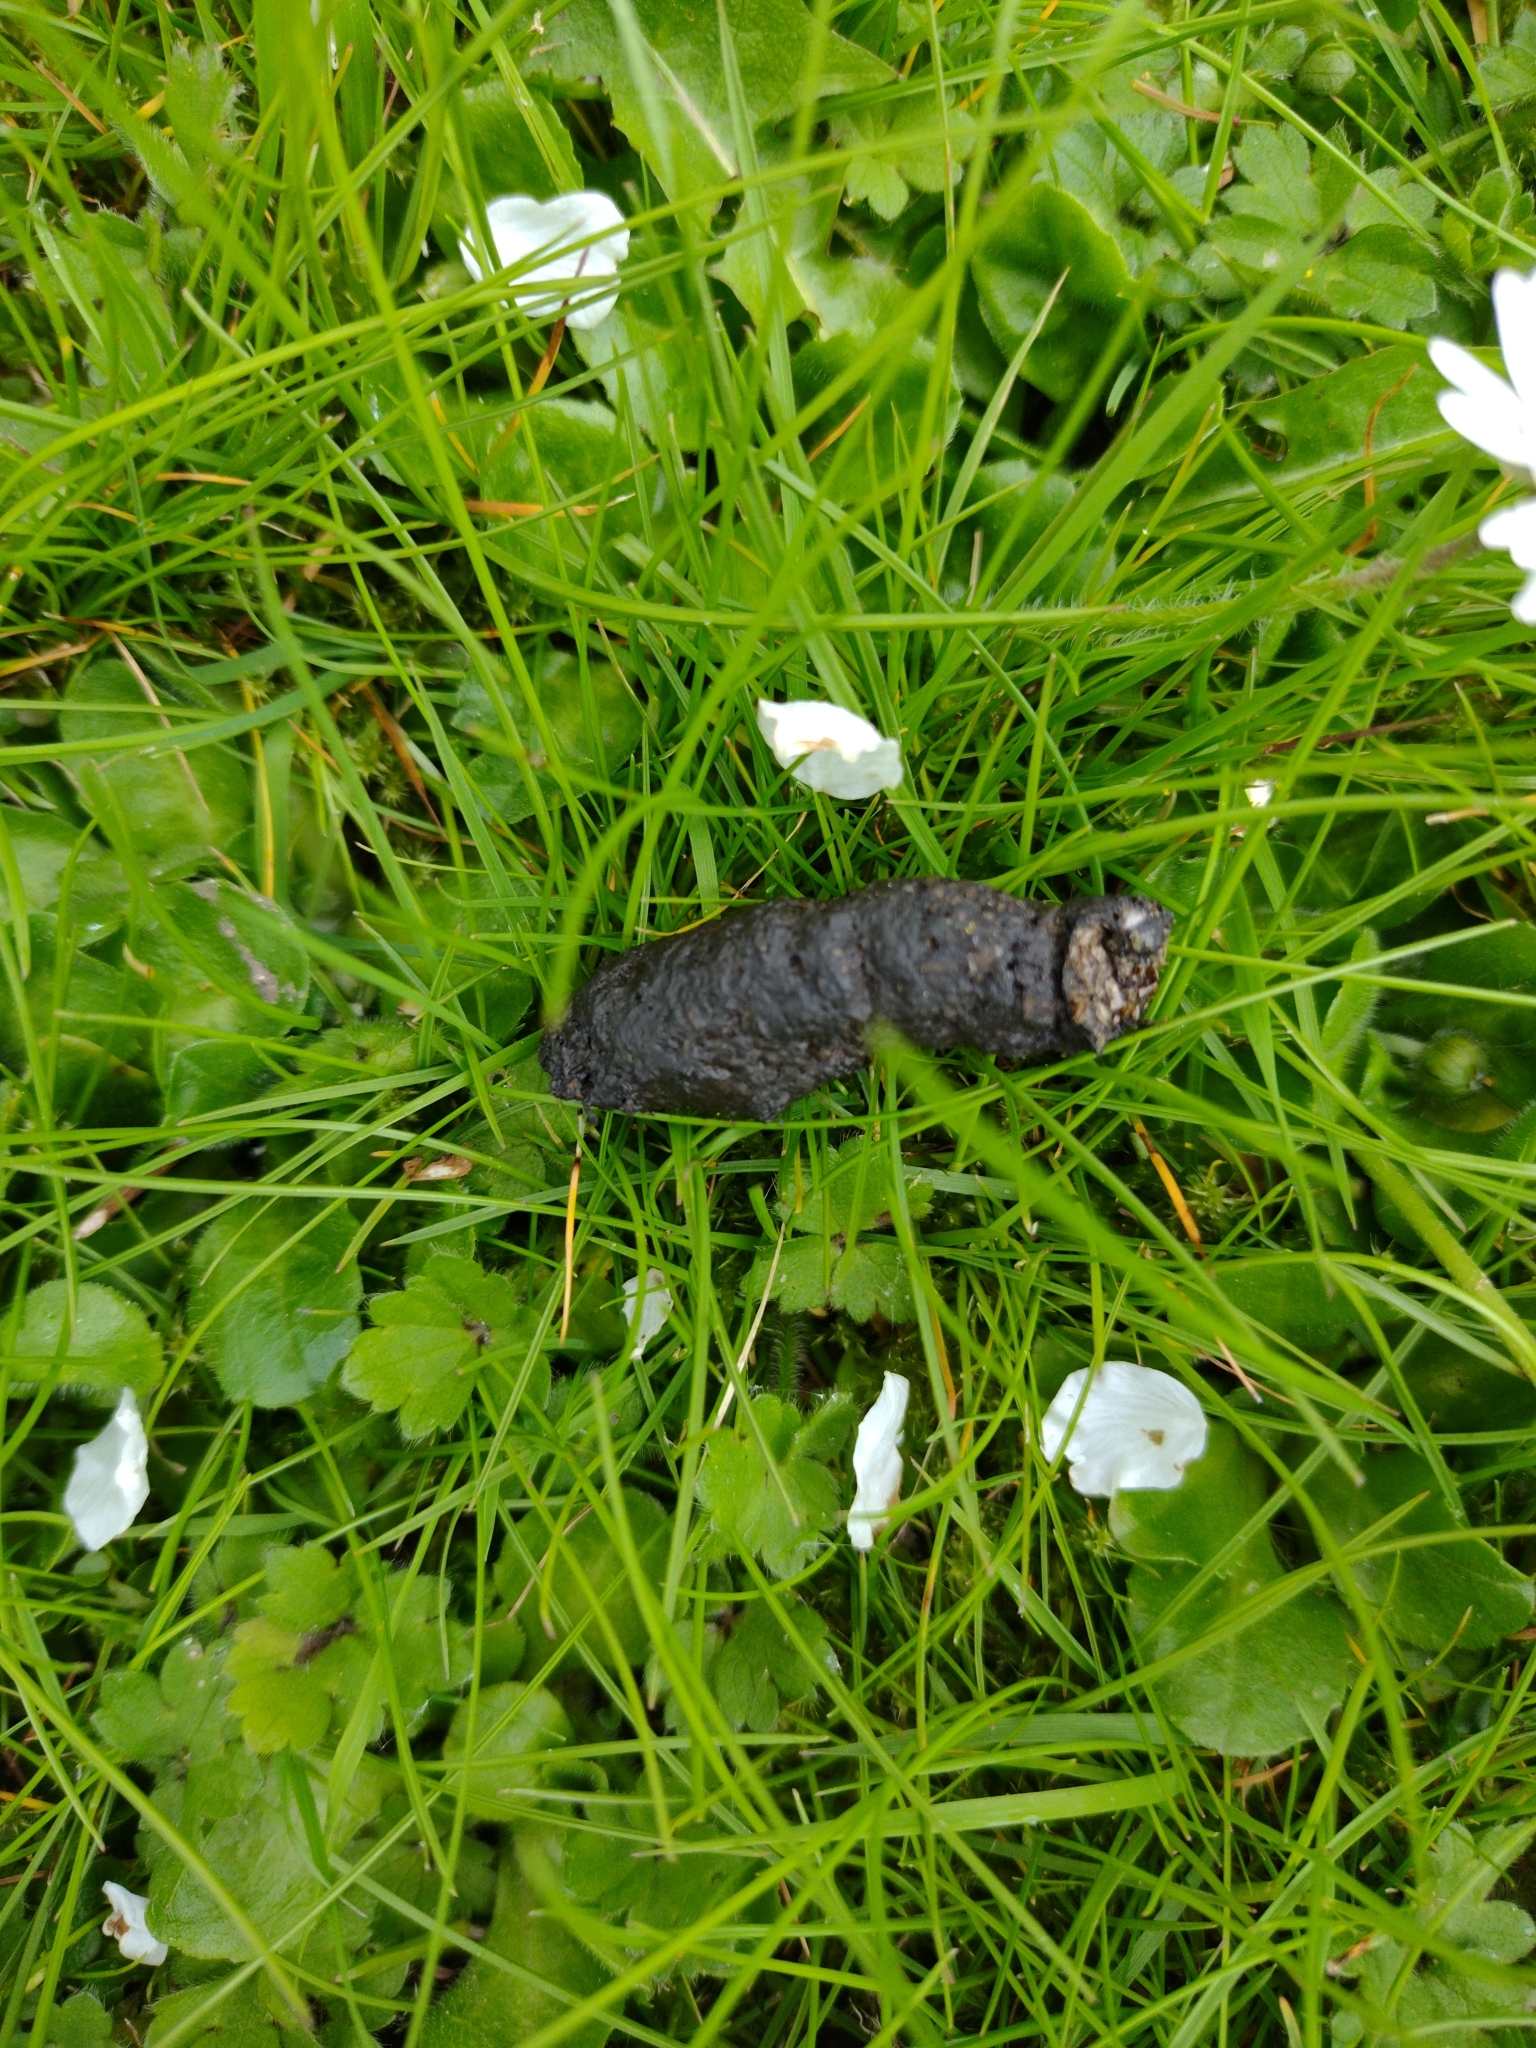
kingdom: Animalia
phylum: Chordata
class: Mammalia
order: Erinaceomorpha
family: Erinaceidae
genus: Erinaceus
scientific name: Erinaceus europaeus
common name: West european hedgehog
